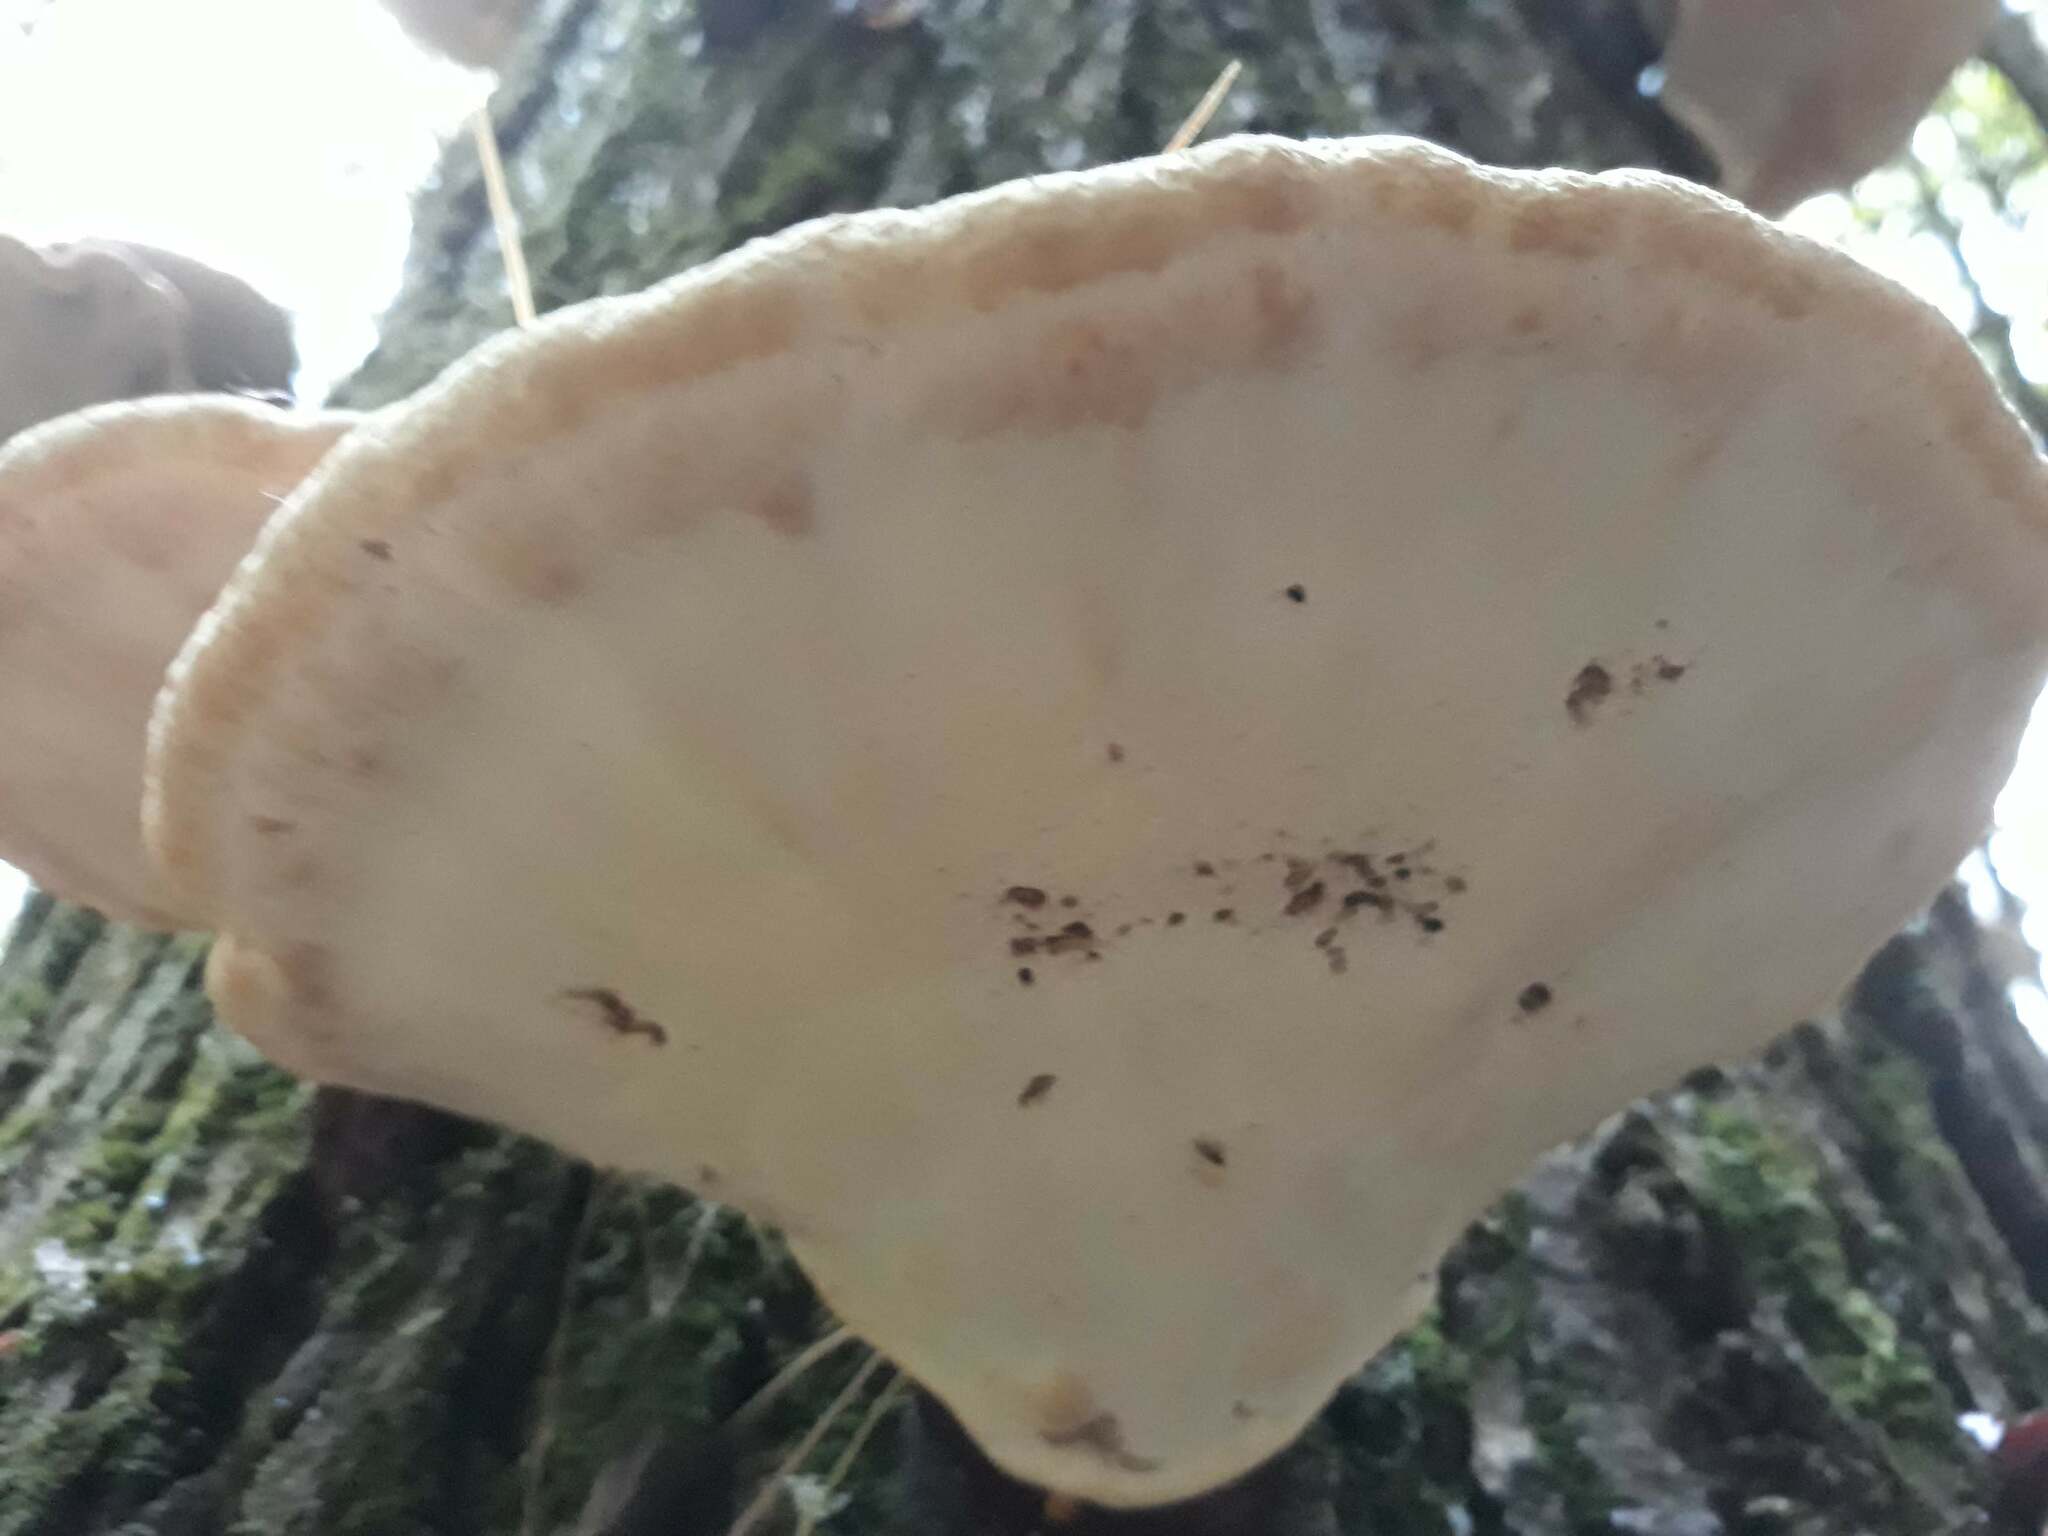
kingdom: Fungi
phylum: Basidiomycota
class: Agaricomycetes
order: Polyporales
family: Polyporaceae
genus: Ganoderma
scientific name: Ganoderma tsugae
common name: Hemlock varnish shelf
